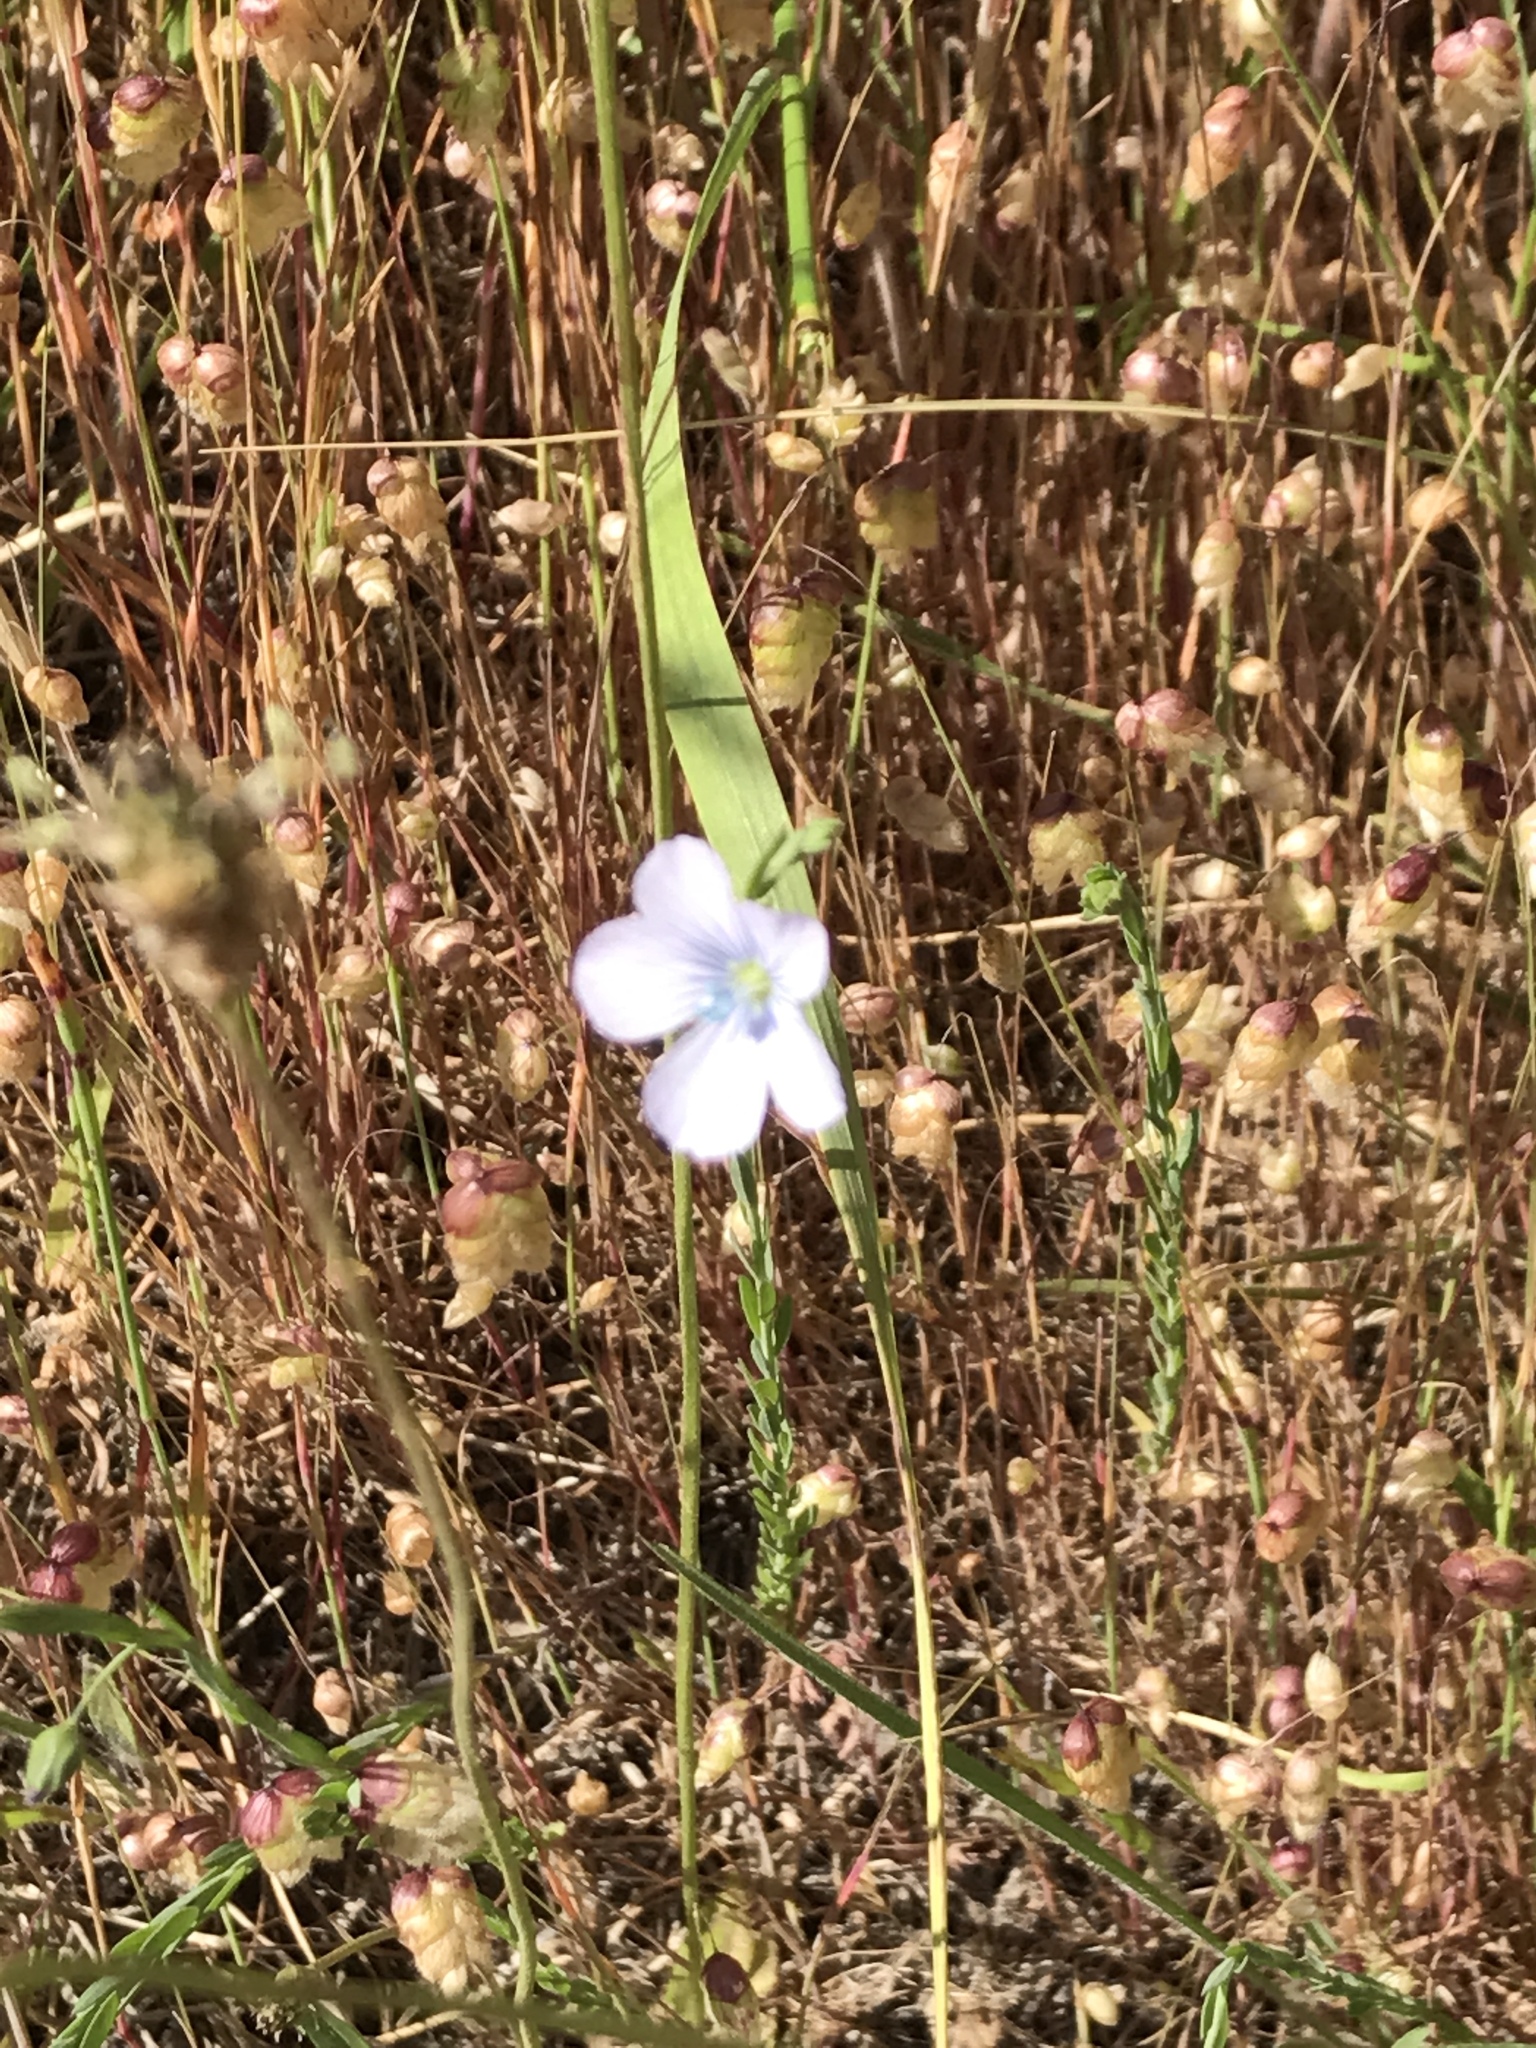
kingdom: Plantae
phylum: Tracheophyta
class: Magnoliopsida
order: Malpighiales
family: Linaceae
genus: Linum
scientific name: Linum bienne
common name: Pale flax
